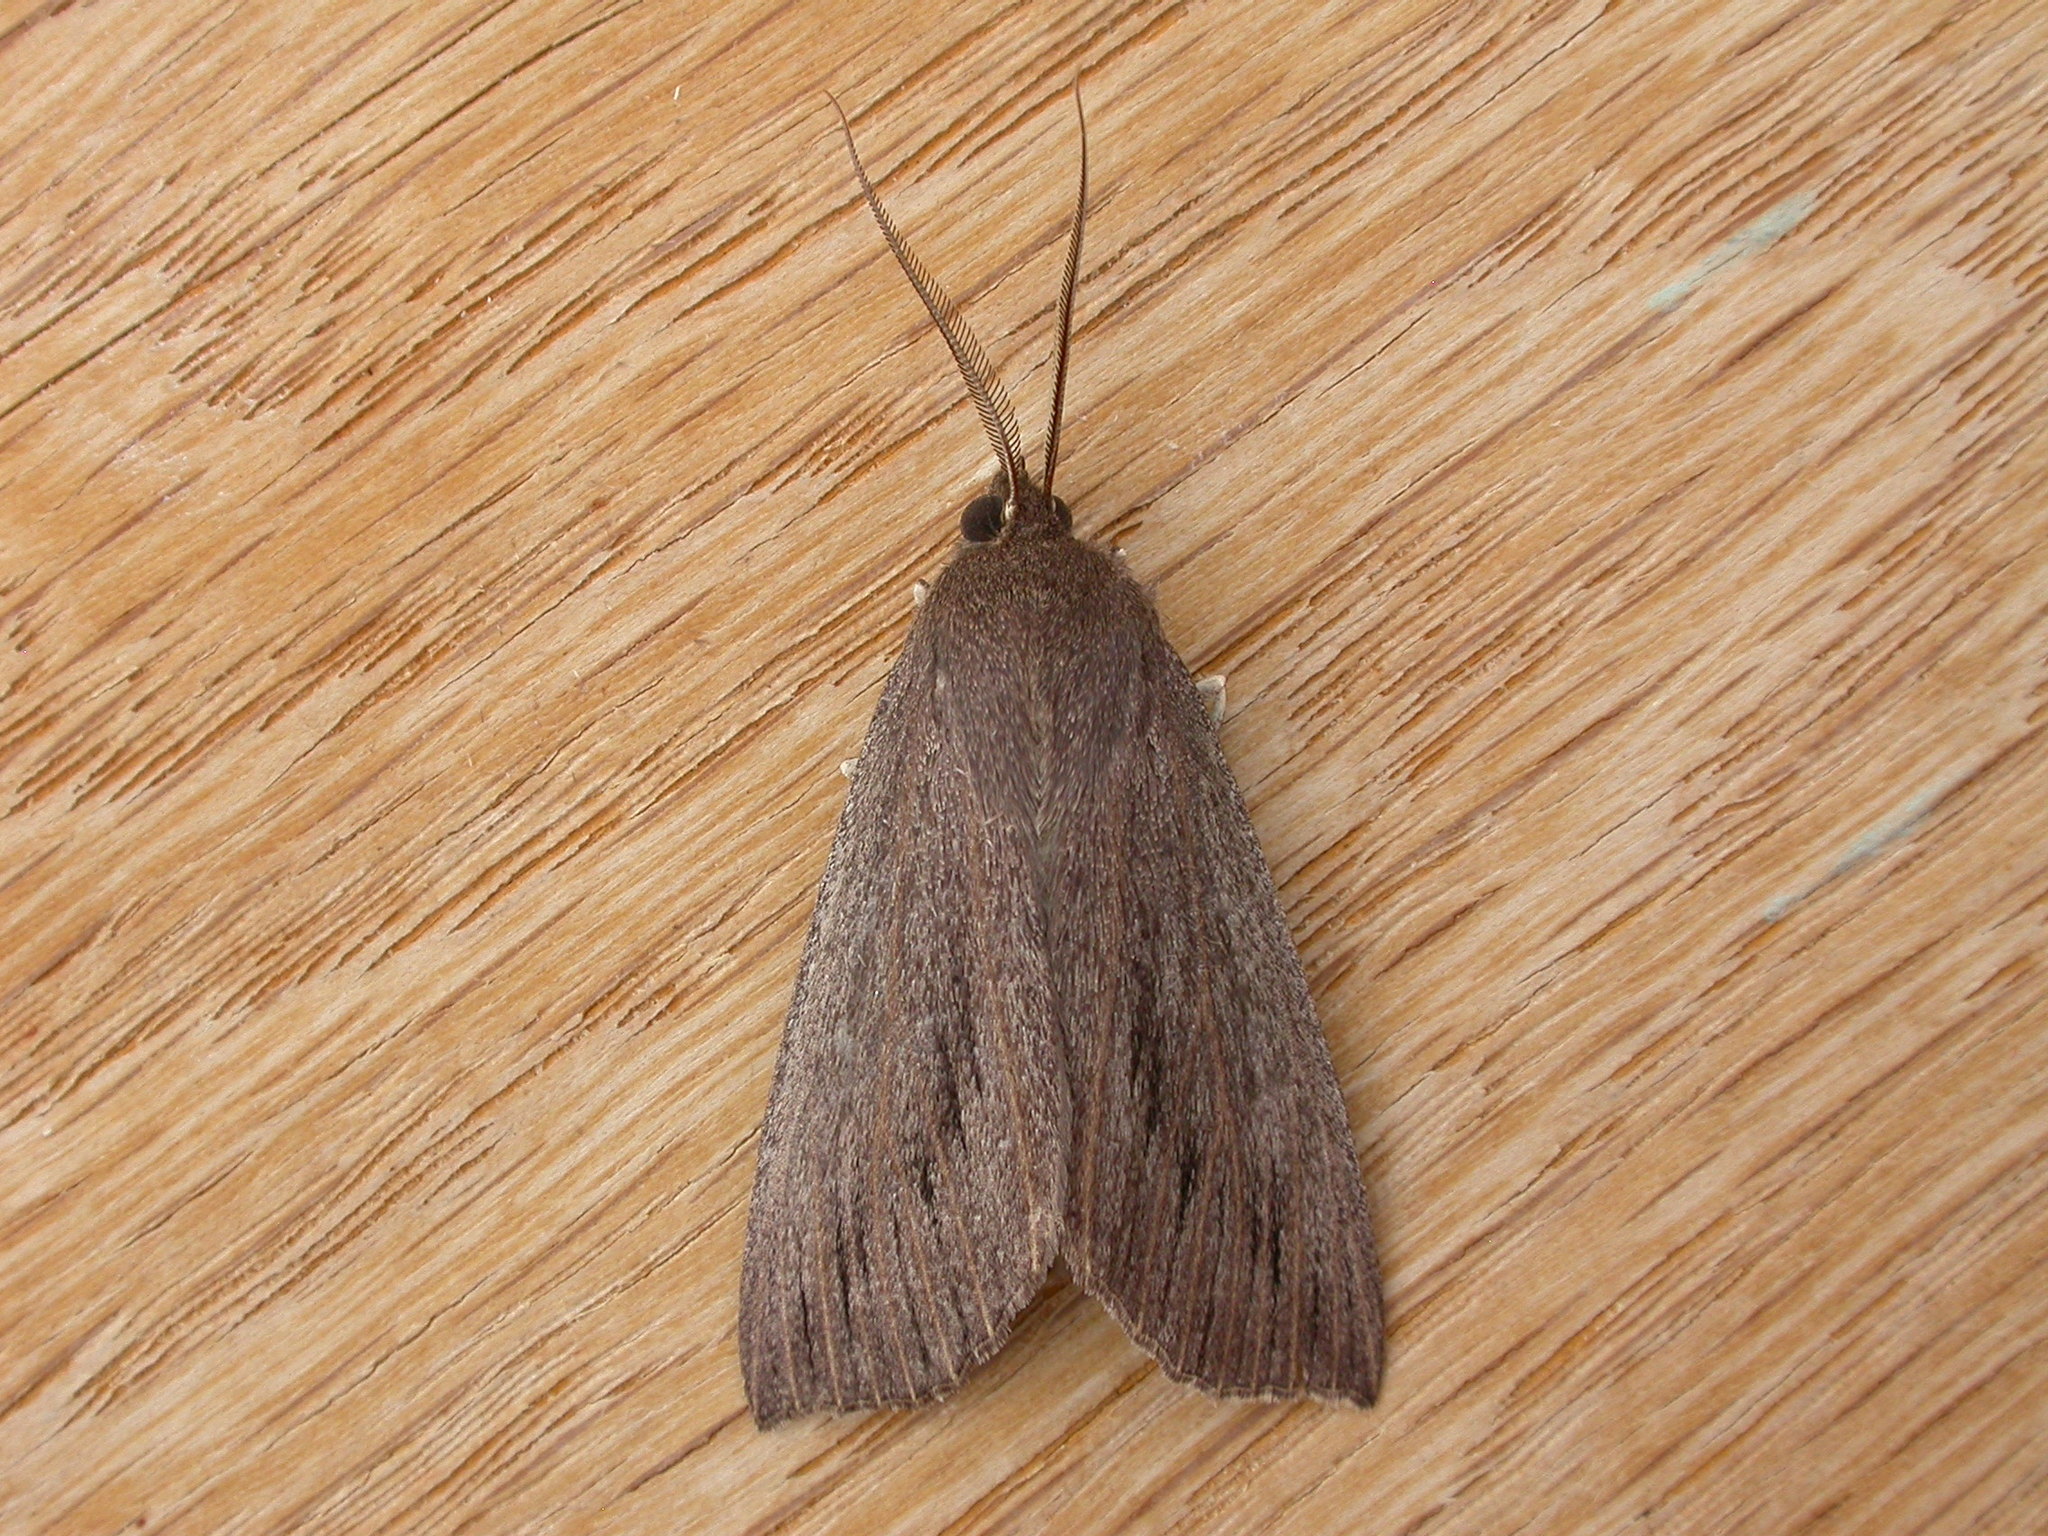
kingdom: Animalia
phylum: Arthropoda
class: Insecta
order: Lepidoptera
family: Geometridae
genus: Palleopa
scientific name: Palleopa innotata
